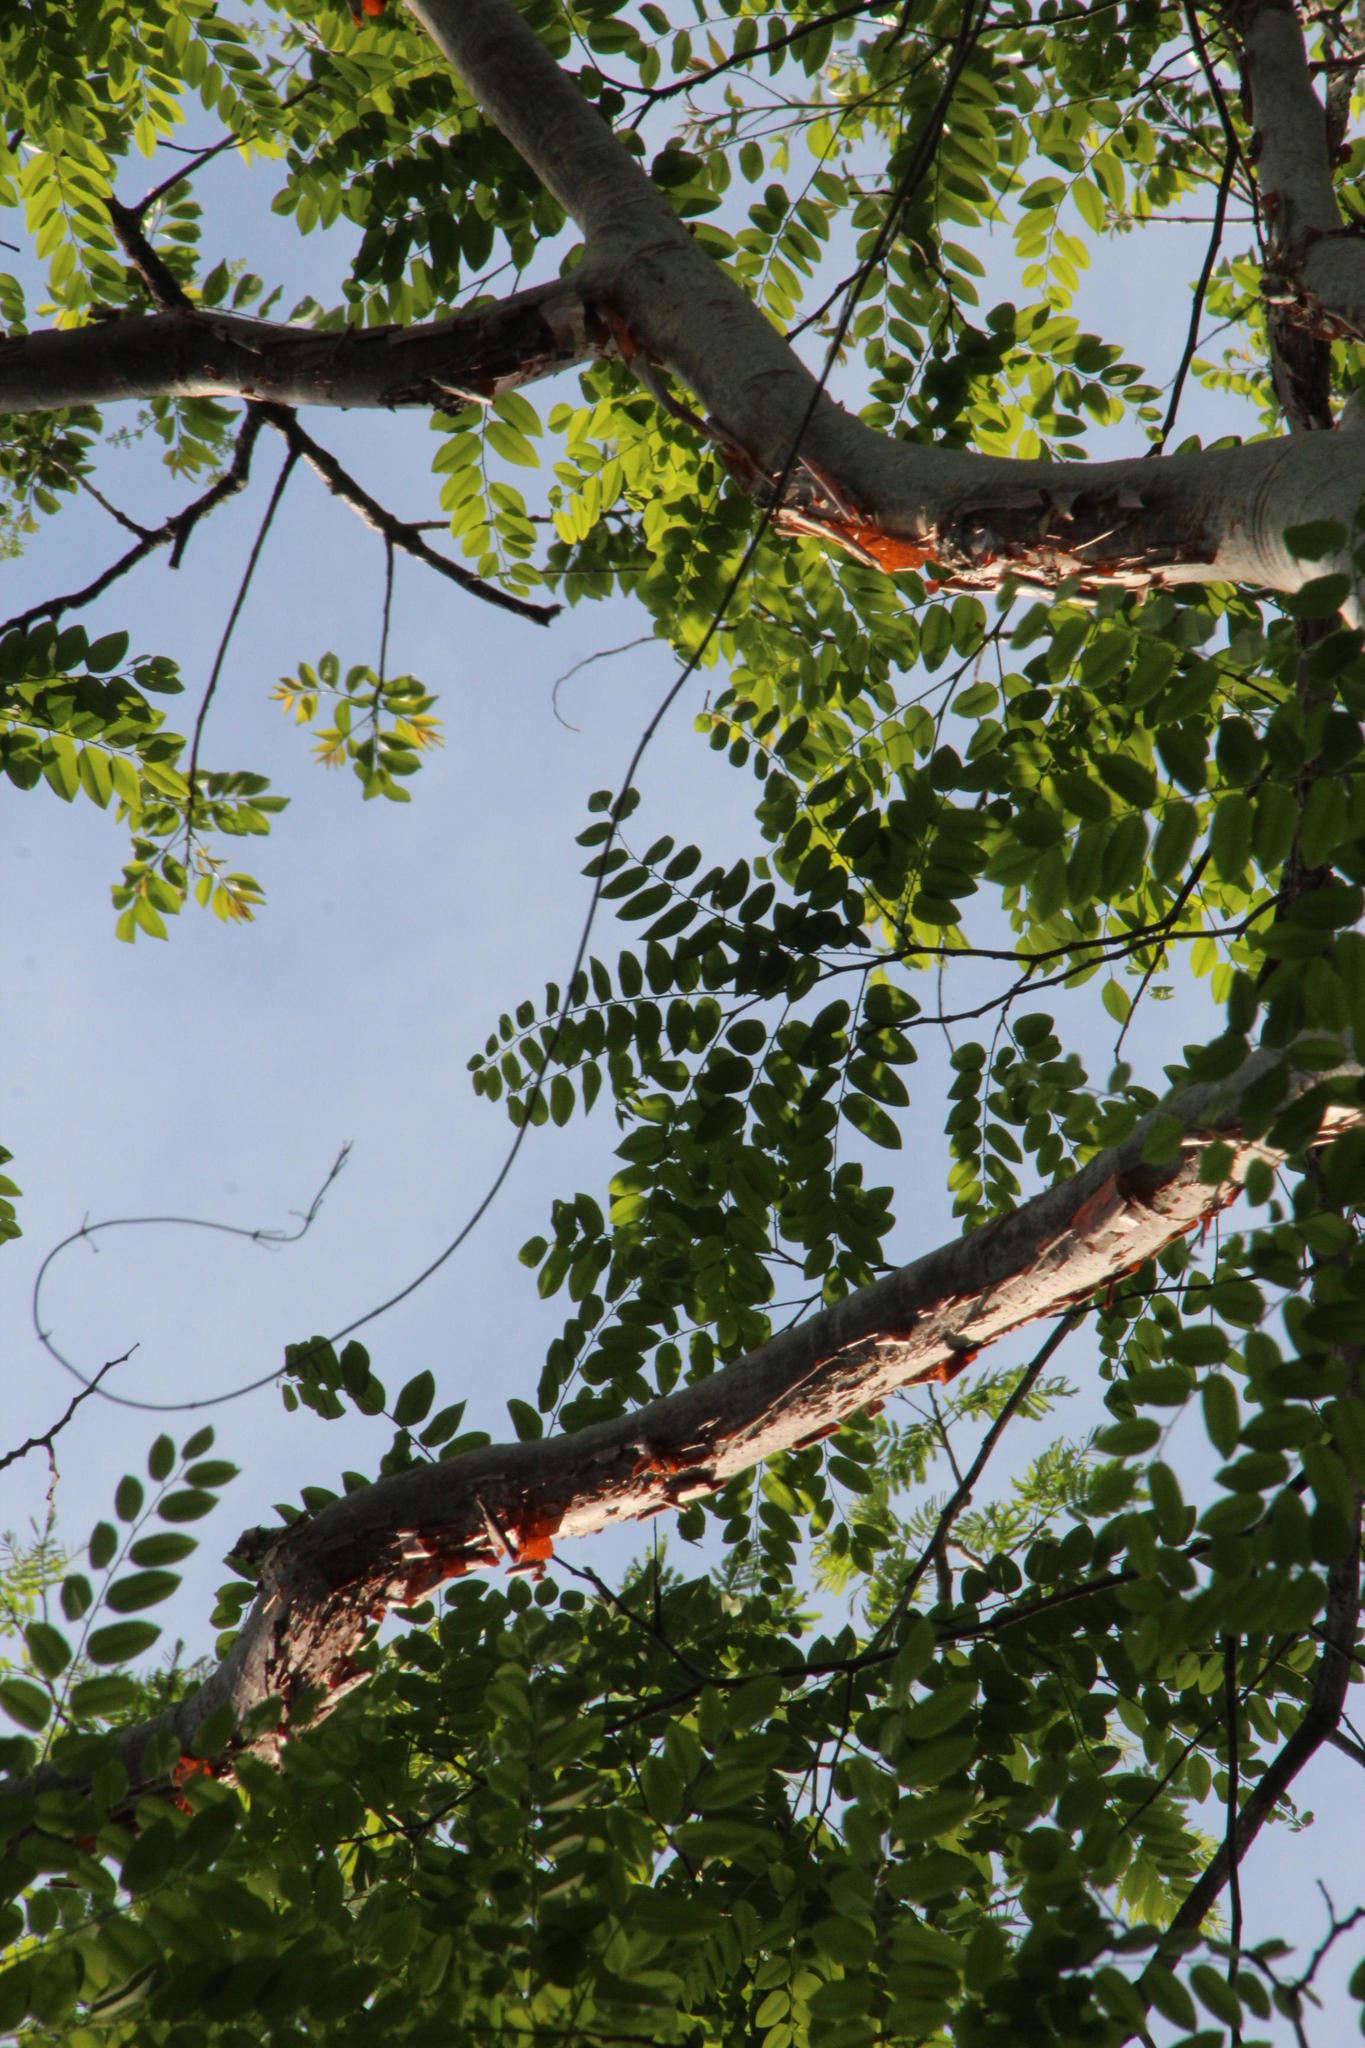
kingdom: Plantae
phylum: Tracheophyta
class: Magnoliopsida
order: Fabales
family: Fabaceae
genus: Amburana
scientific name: Amburana acreana
